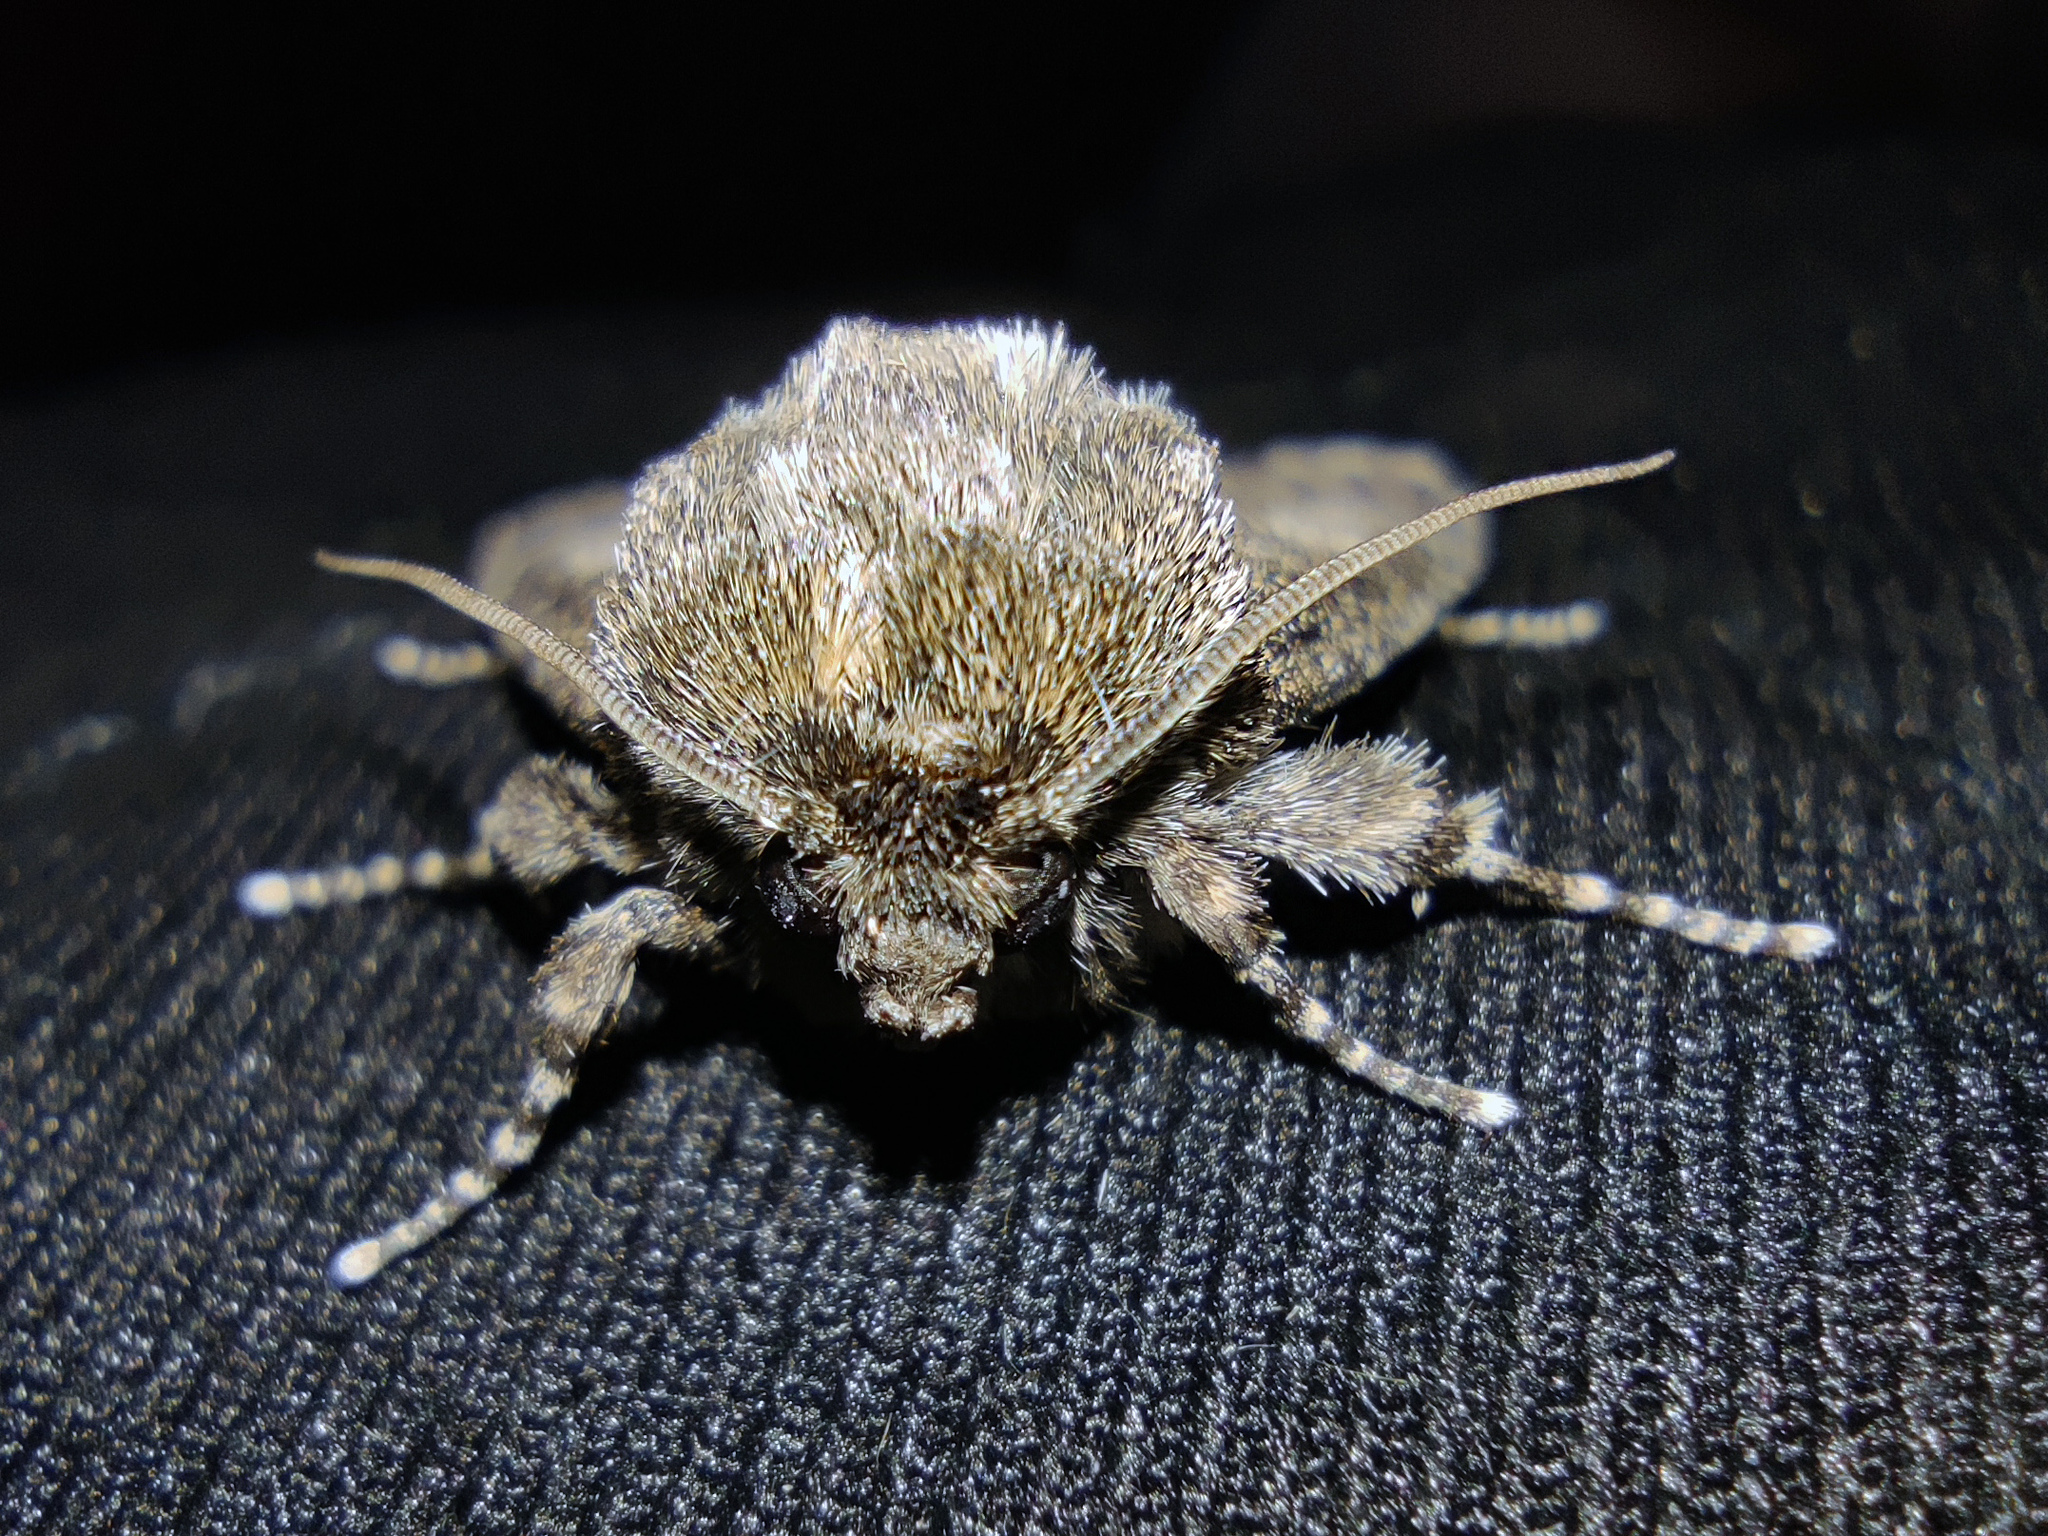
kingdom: Animalia
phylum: Arthropoda
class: Insecta
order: Lepidoptera
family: Noctuidae
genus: Acronicta
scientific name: Acronicta megacephala
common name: Poplar grey
